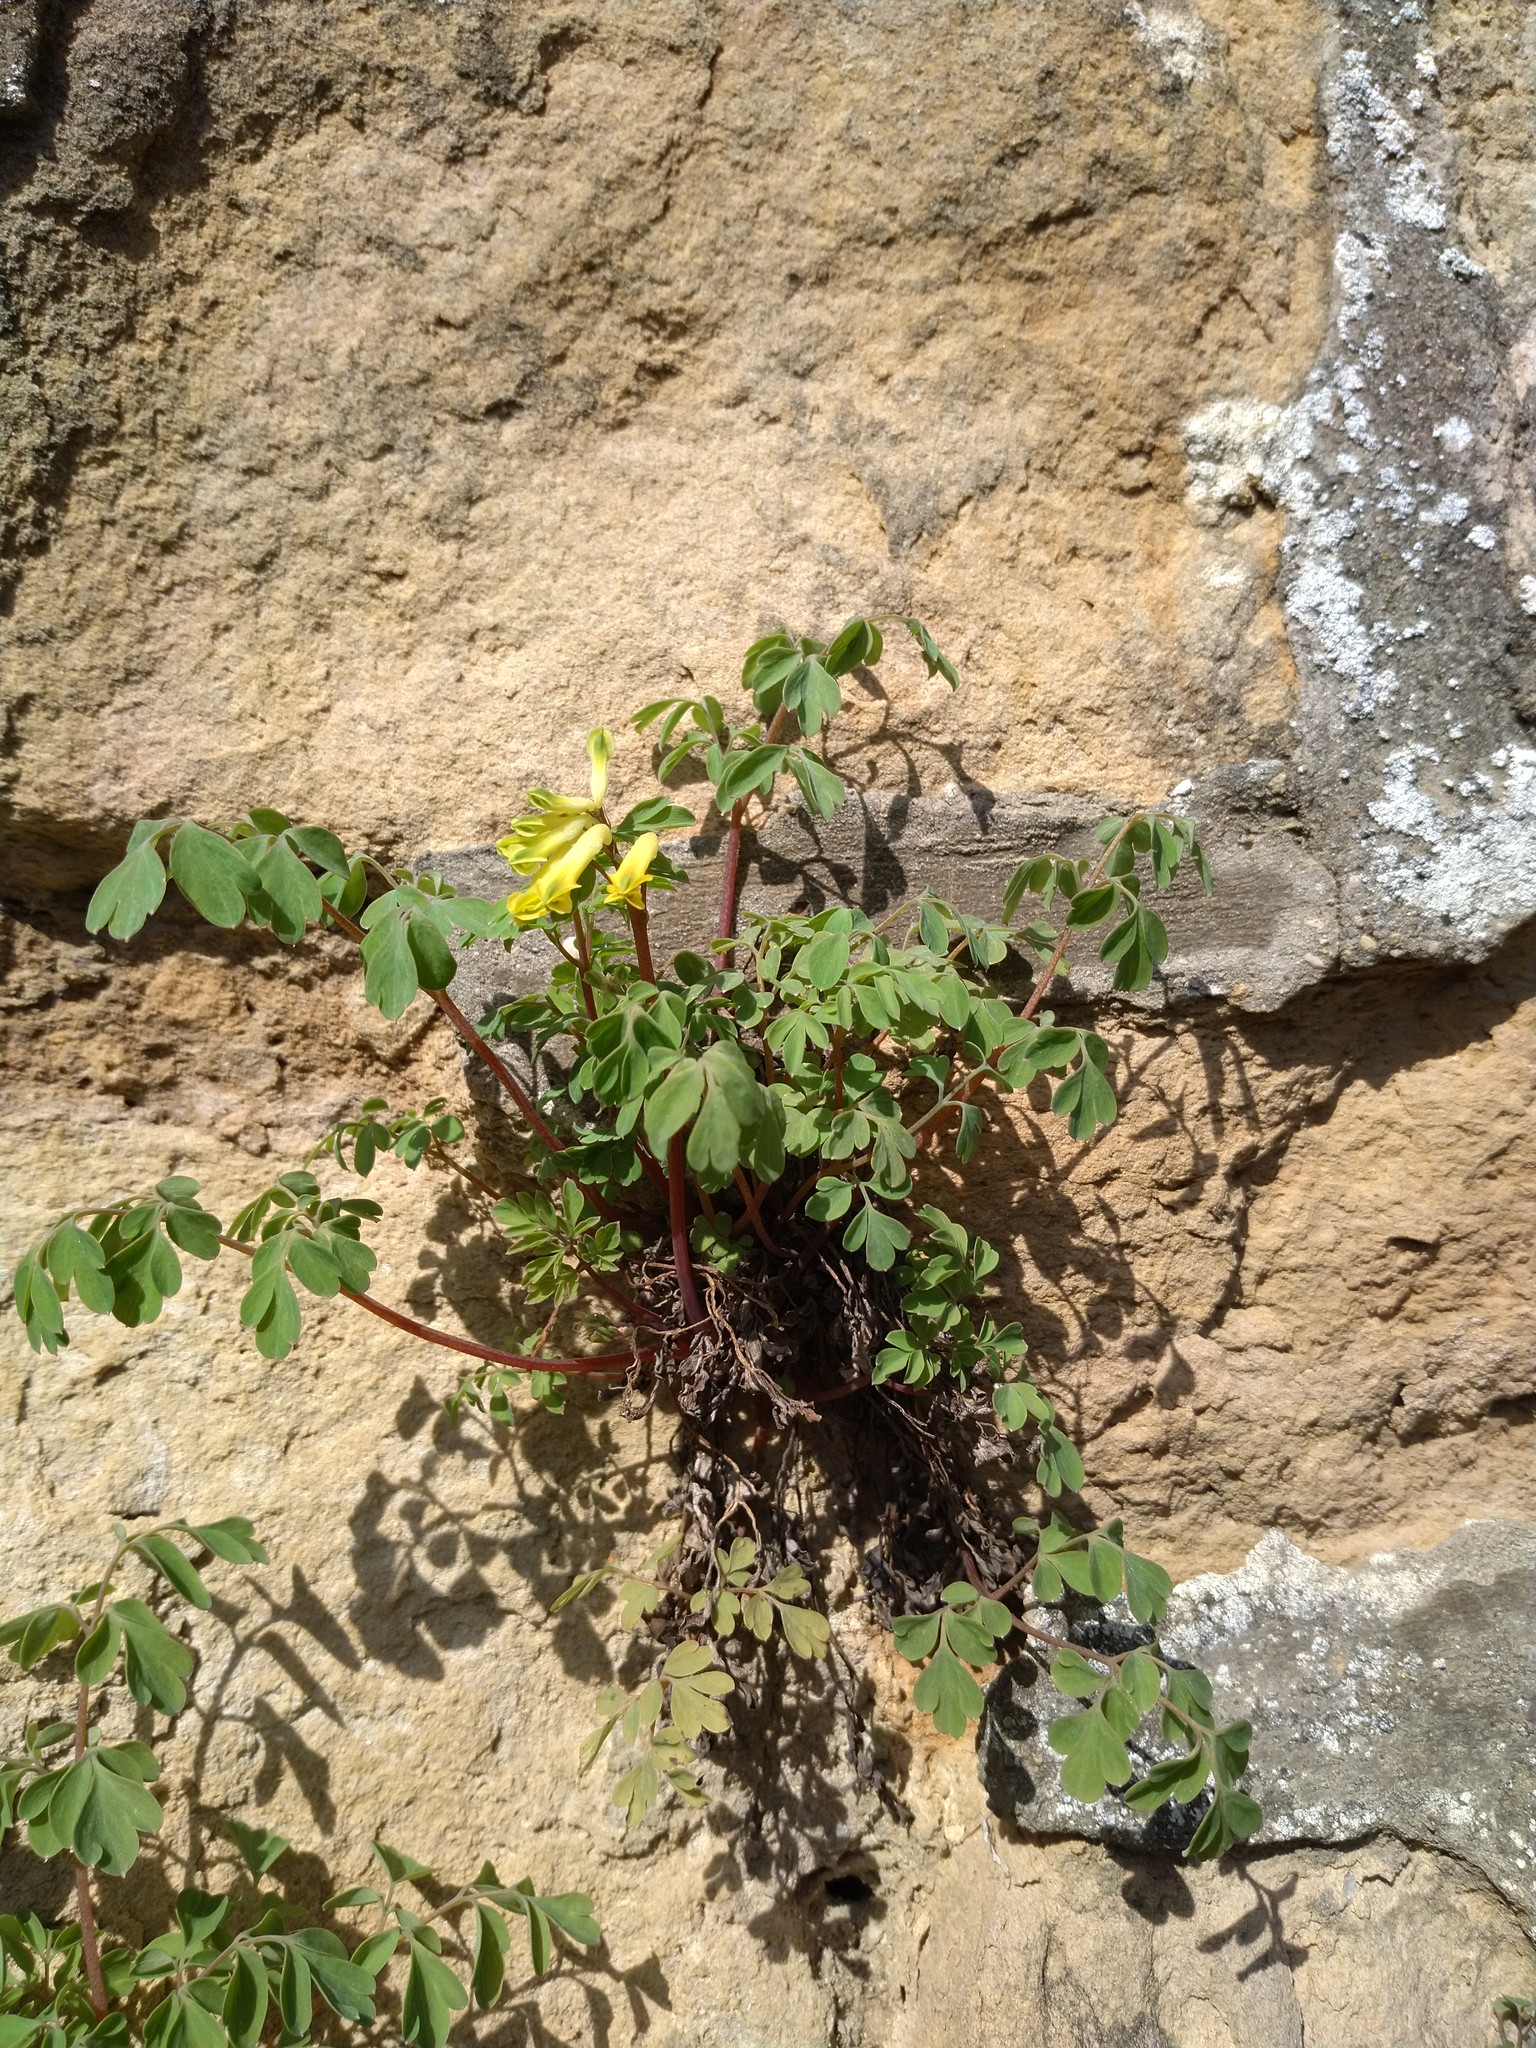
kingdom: Plantae
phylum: Tracheophyta
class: Magnoliopsida
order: Ranunculales
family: Papaveraceae
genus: Pseudofumaria
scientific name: Pseudofumaria lutea
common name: Yellow corydalis
